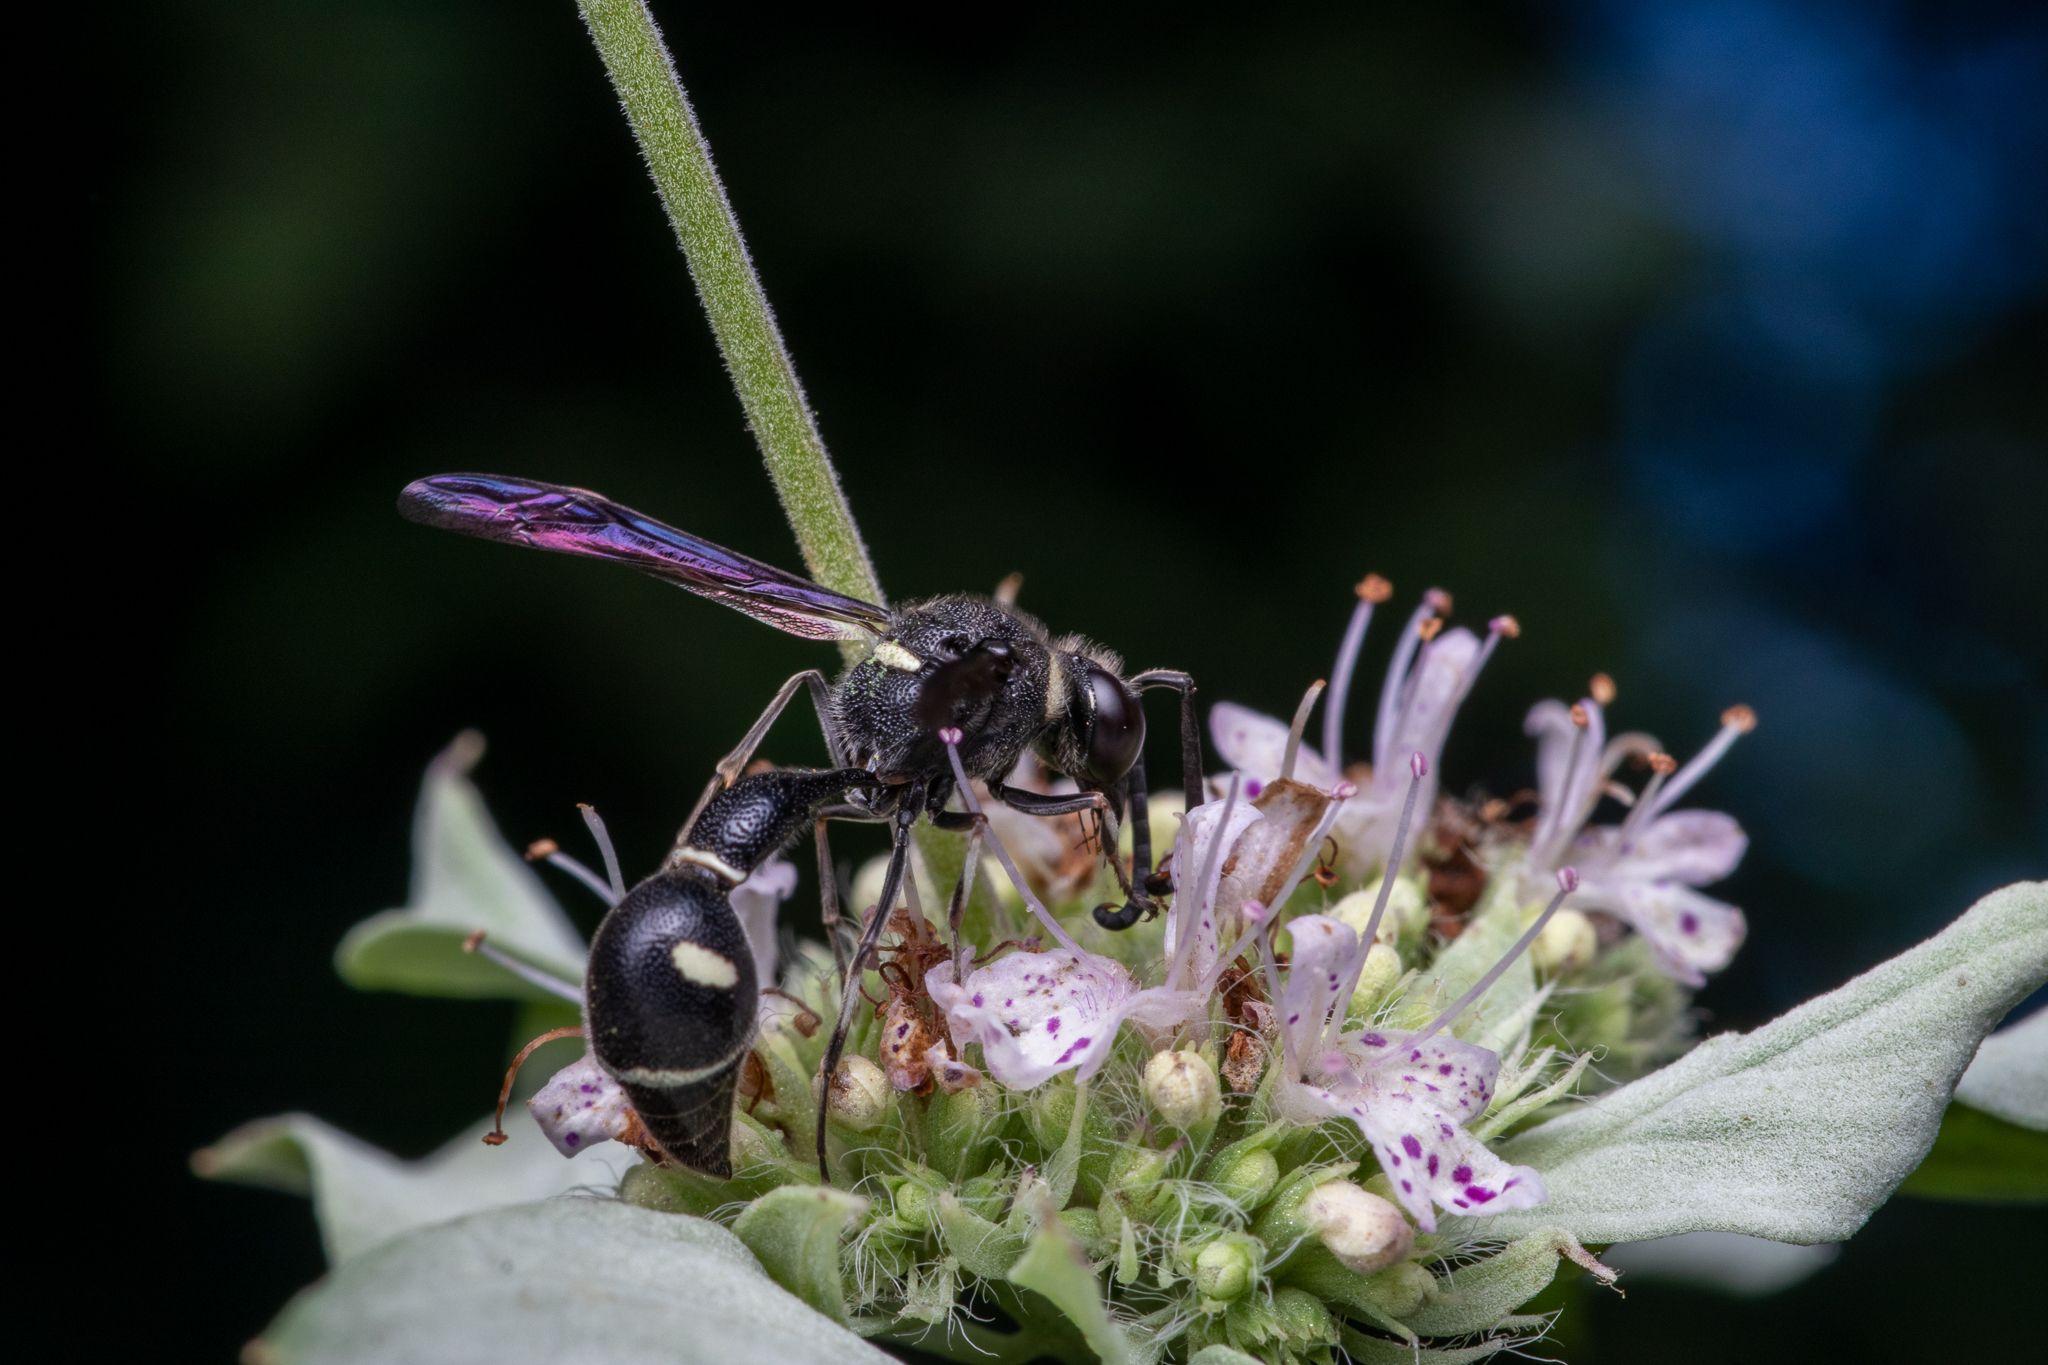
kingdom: Animalia
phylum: Arthropoda
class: Insecta
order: Hymenoptera
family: Vespidae
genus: Eumenes
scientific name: Eumenes fraternus
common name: Fraternal potter wasp
